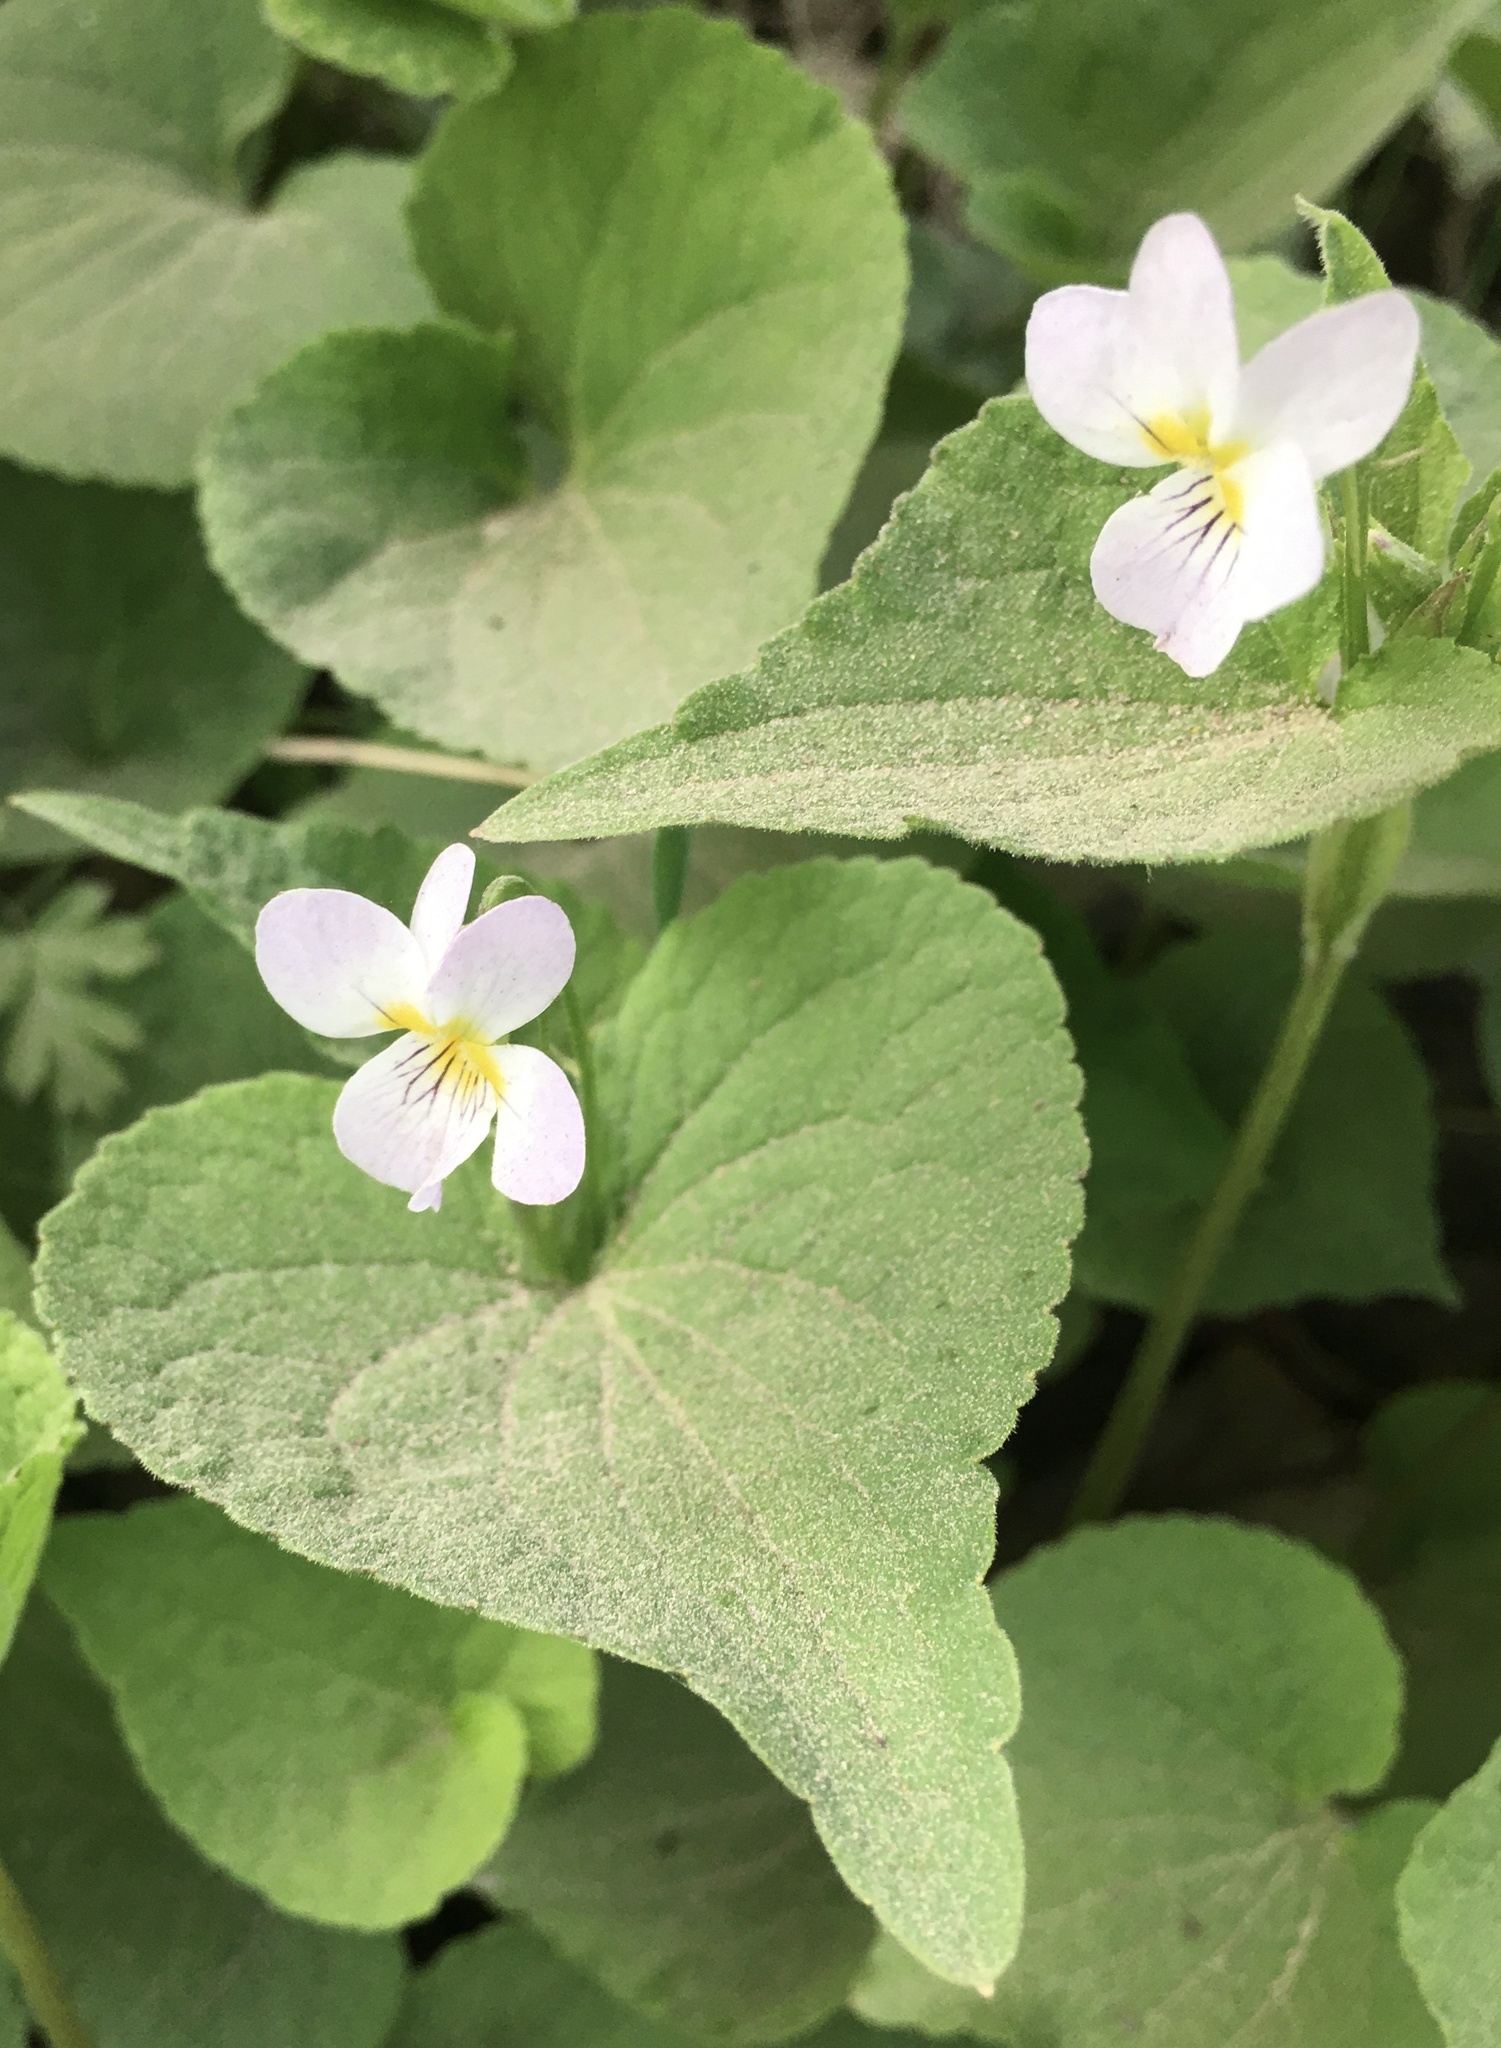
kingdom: Plantae
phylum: Tracheophyta
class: Magnoliopsida
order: Malpighiales
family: Violaceae
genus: Viola
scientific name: Viola canadensis
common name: Canada violet
